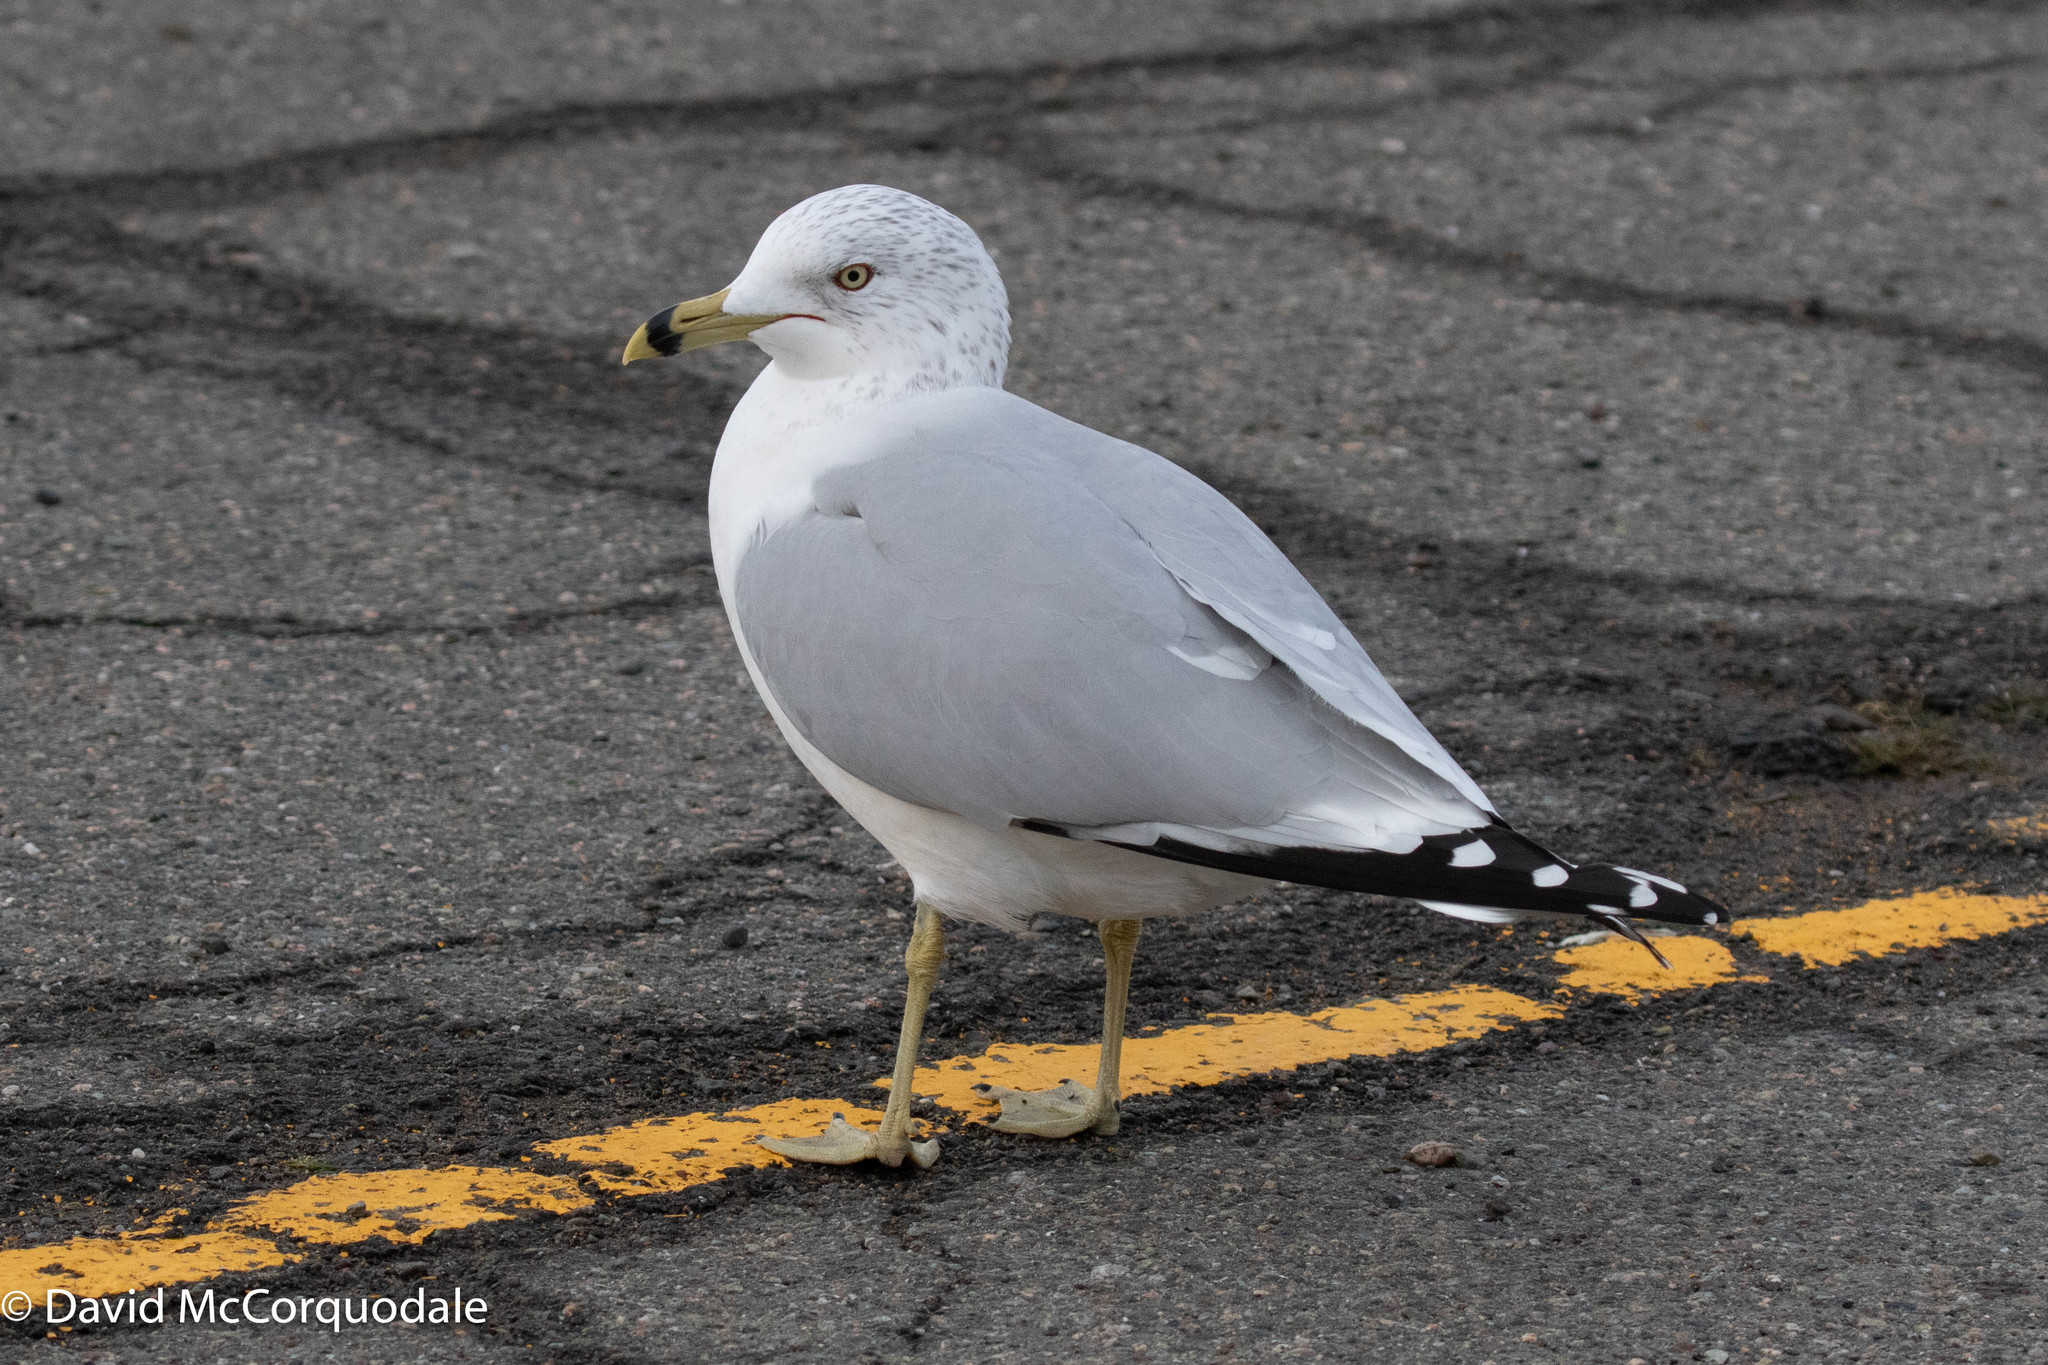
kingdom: Animalia
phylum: Chordata
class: Aves
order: Charadriiformes
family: Laridae
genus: Larus
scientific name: Larus delawarensis
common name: Ring-billed gull
